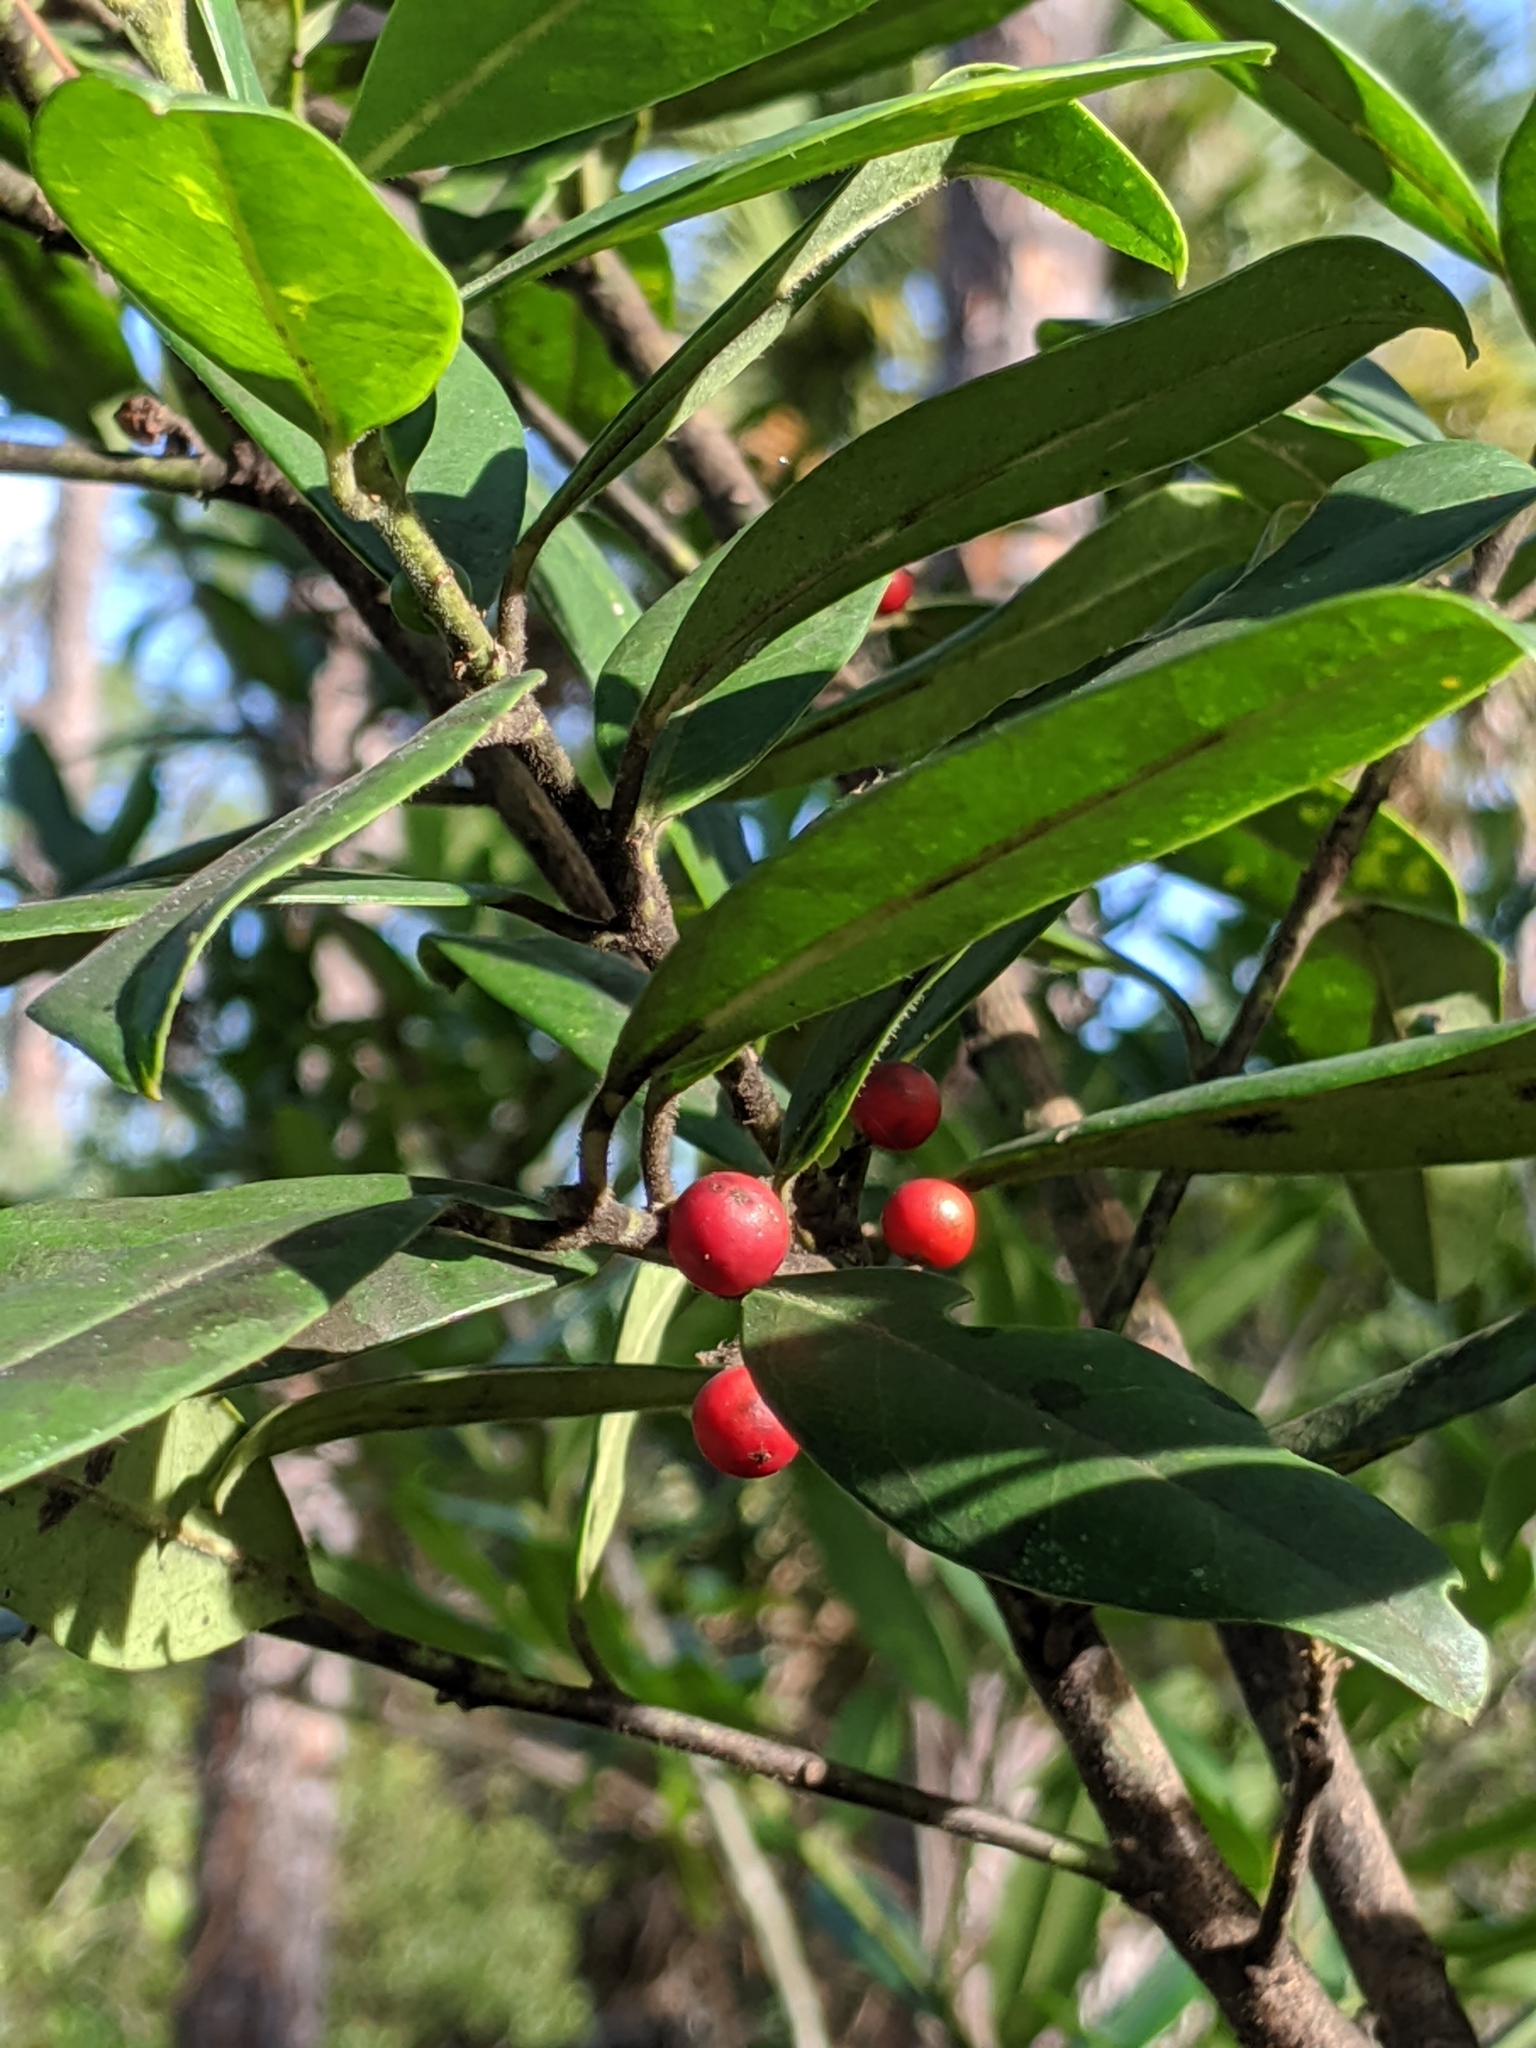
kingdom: Plantae
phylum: Tracheophyta
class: Magnoliopsida
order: Aquifoliales
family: Aquifoliaceae
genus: Ilex
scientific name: Ilex cassine
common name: Dahoon
